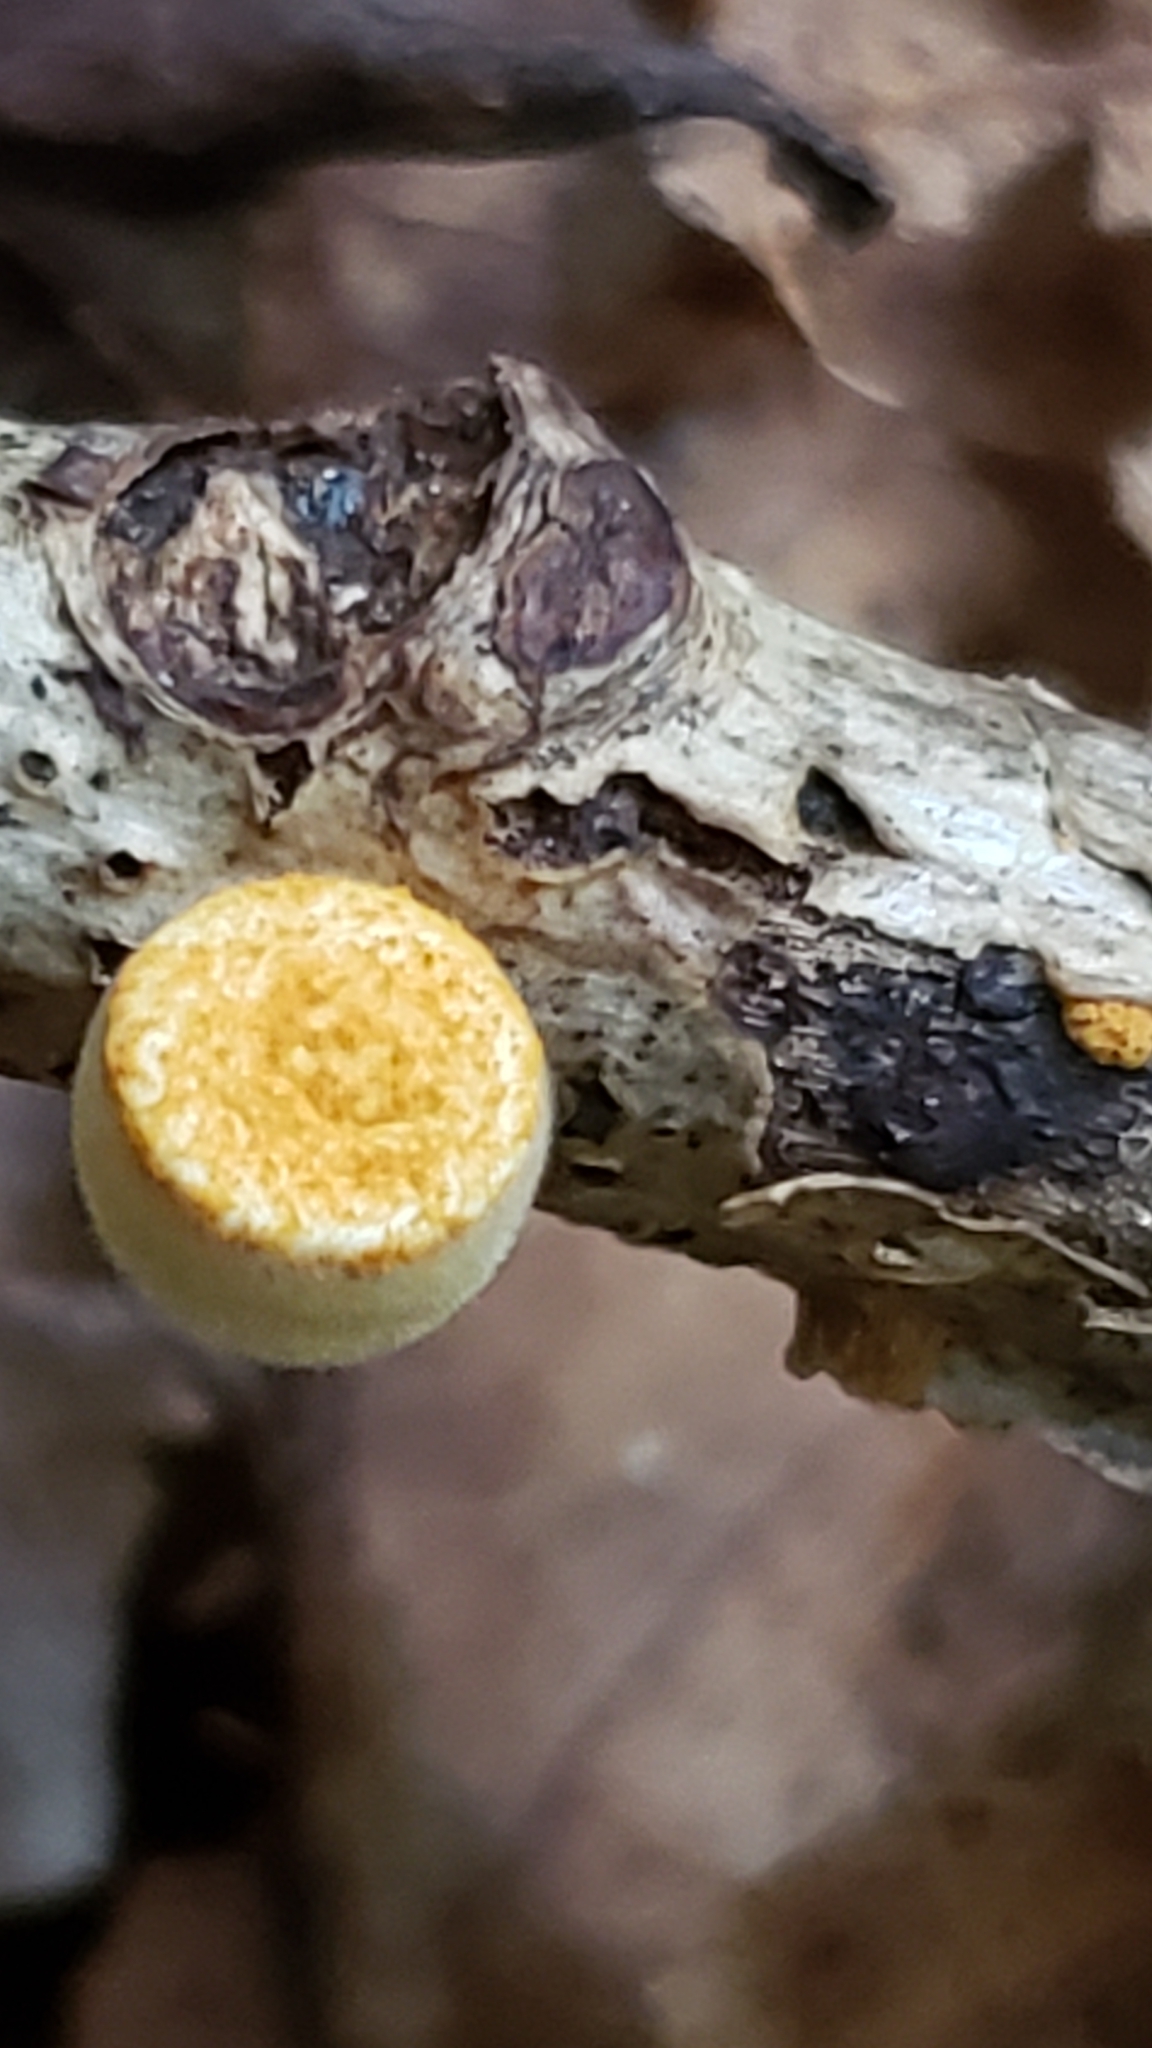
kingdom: Fungi
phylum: Basidiomycota
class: Agaricomycetes
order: Agaricales
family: Nidulariaceae
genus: Crucibulum
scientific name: Crucibulum laeve
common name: Common bird's nest
